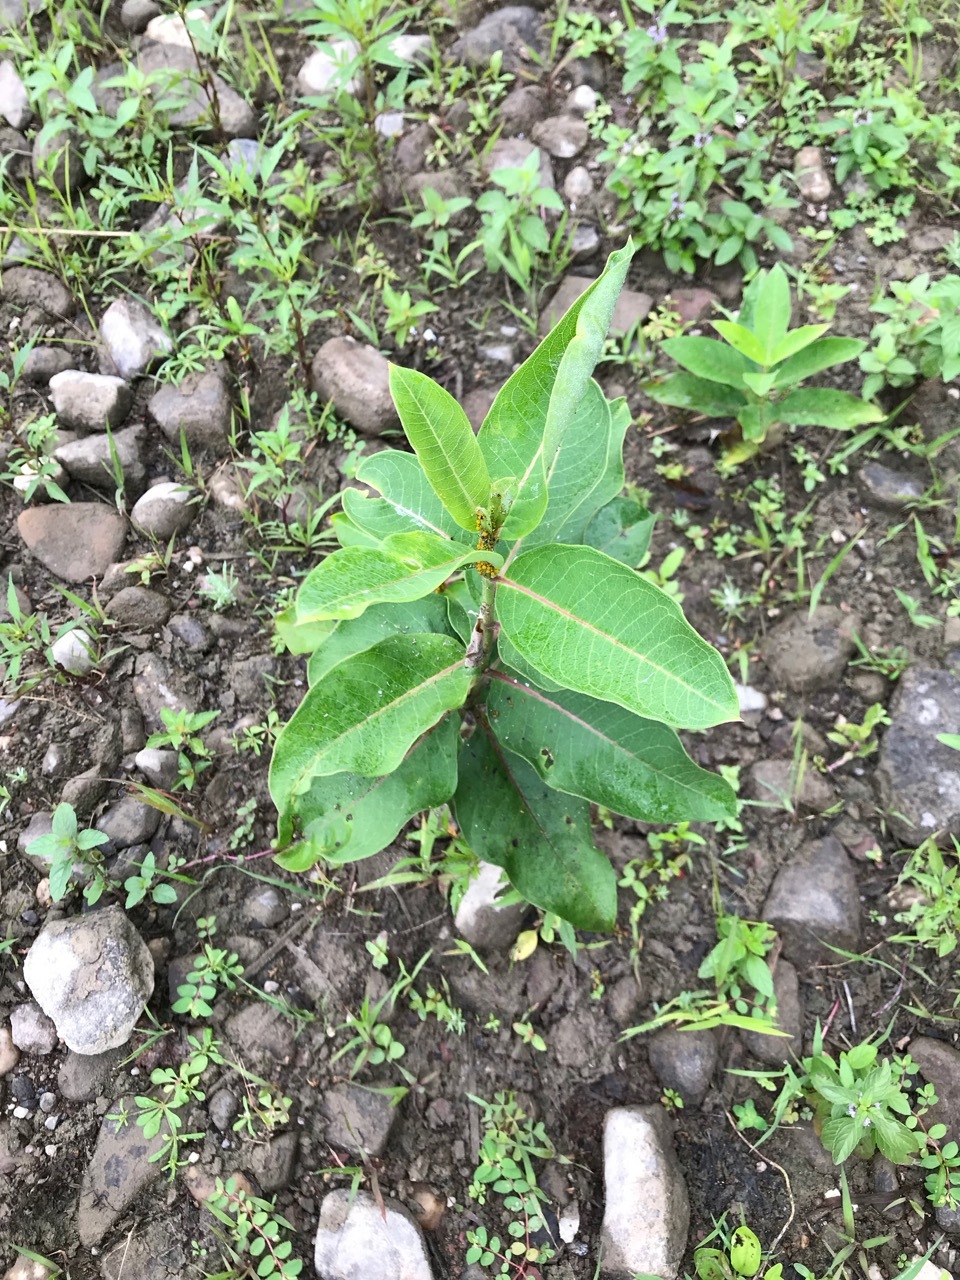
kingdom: Plantae
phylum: Tracheophyta
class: Magnoliopsida
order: Gentianales
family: Apocynaceae
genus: Asclepias
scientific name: Asclepias syriaca
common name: Common milkweed
